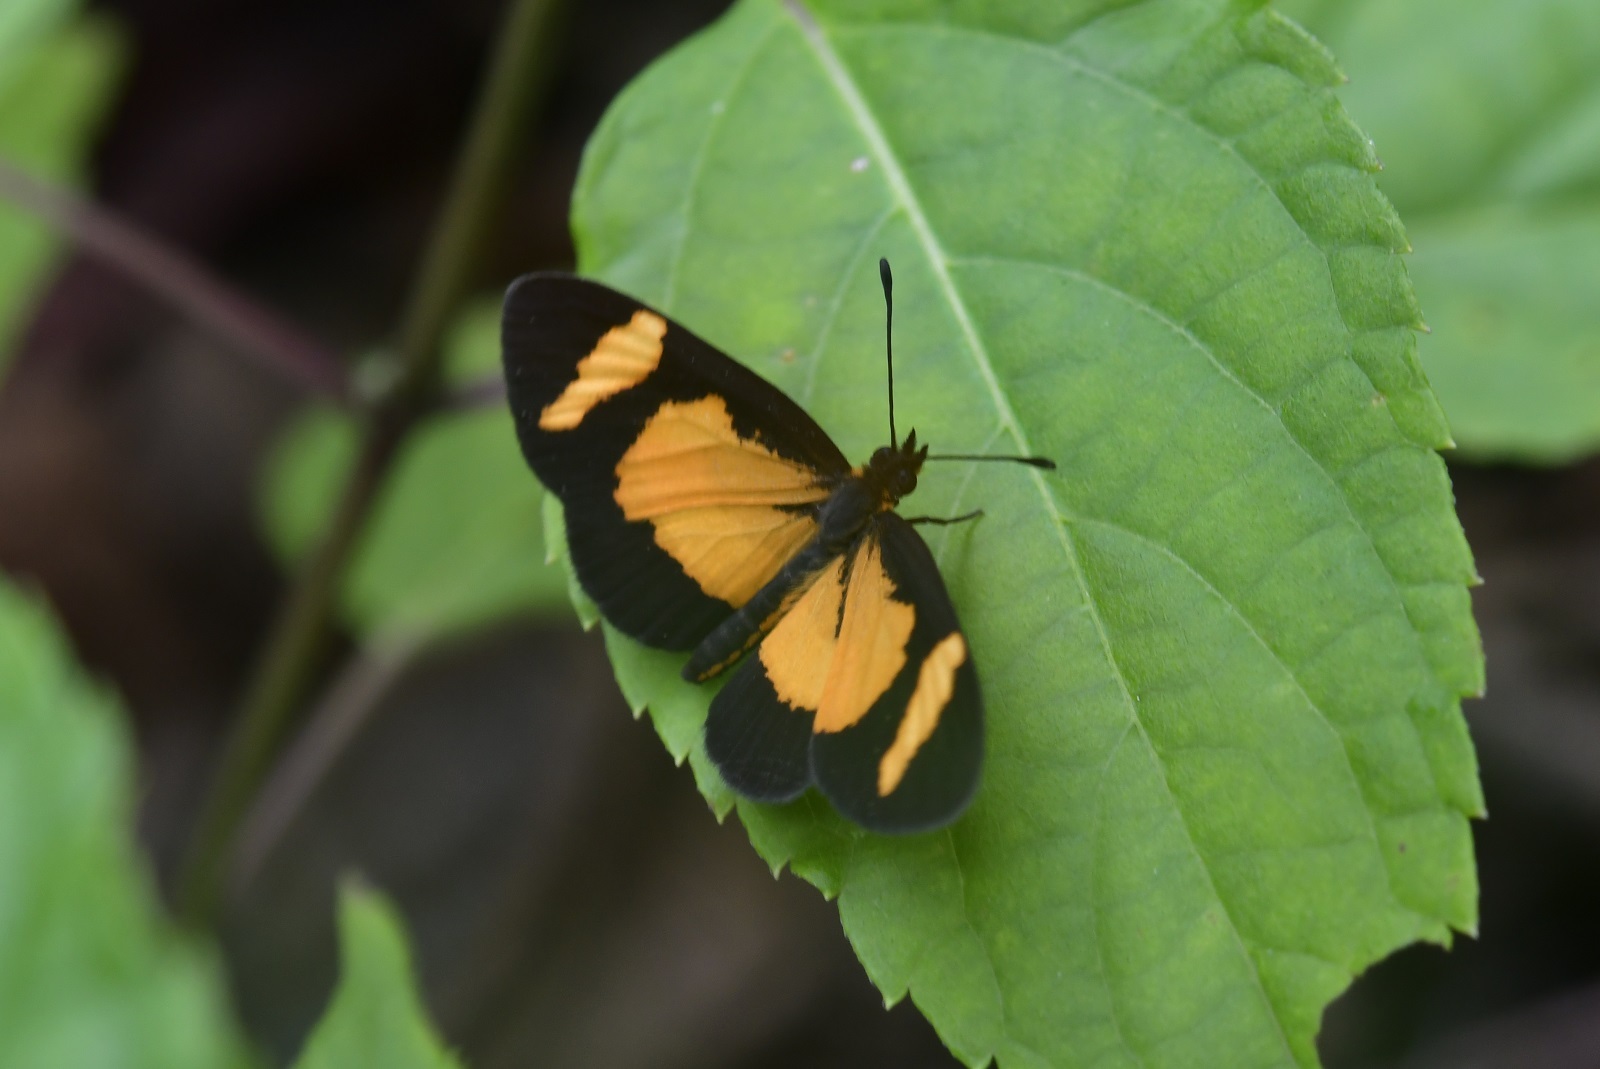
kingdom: Animalia
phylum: Arthropoda
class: Insecta
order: Lepidoptera
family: Nymphalidae
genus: Microtia
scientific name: Microtia elva
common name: Elf
